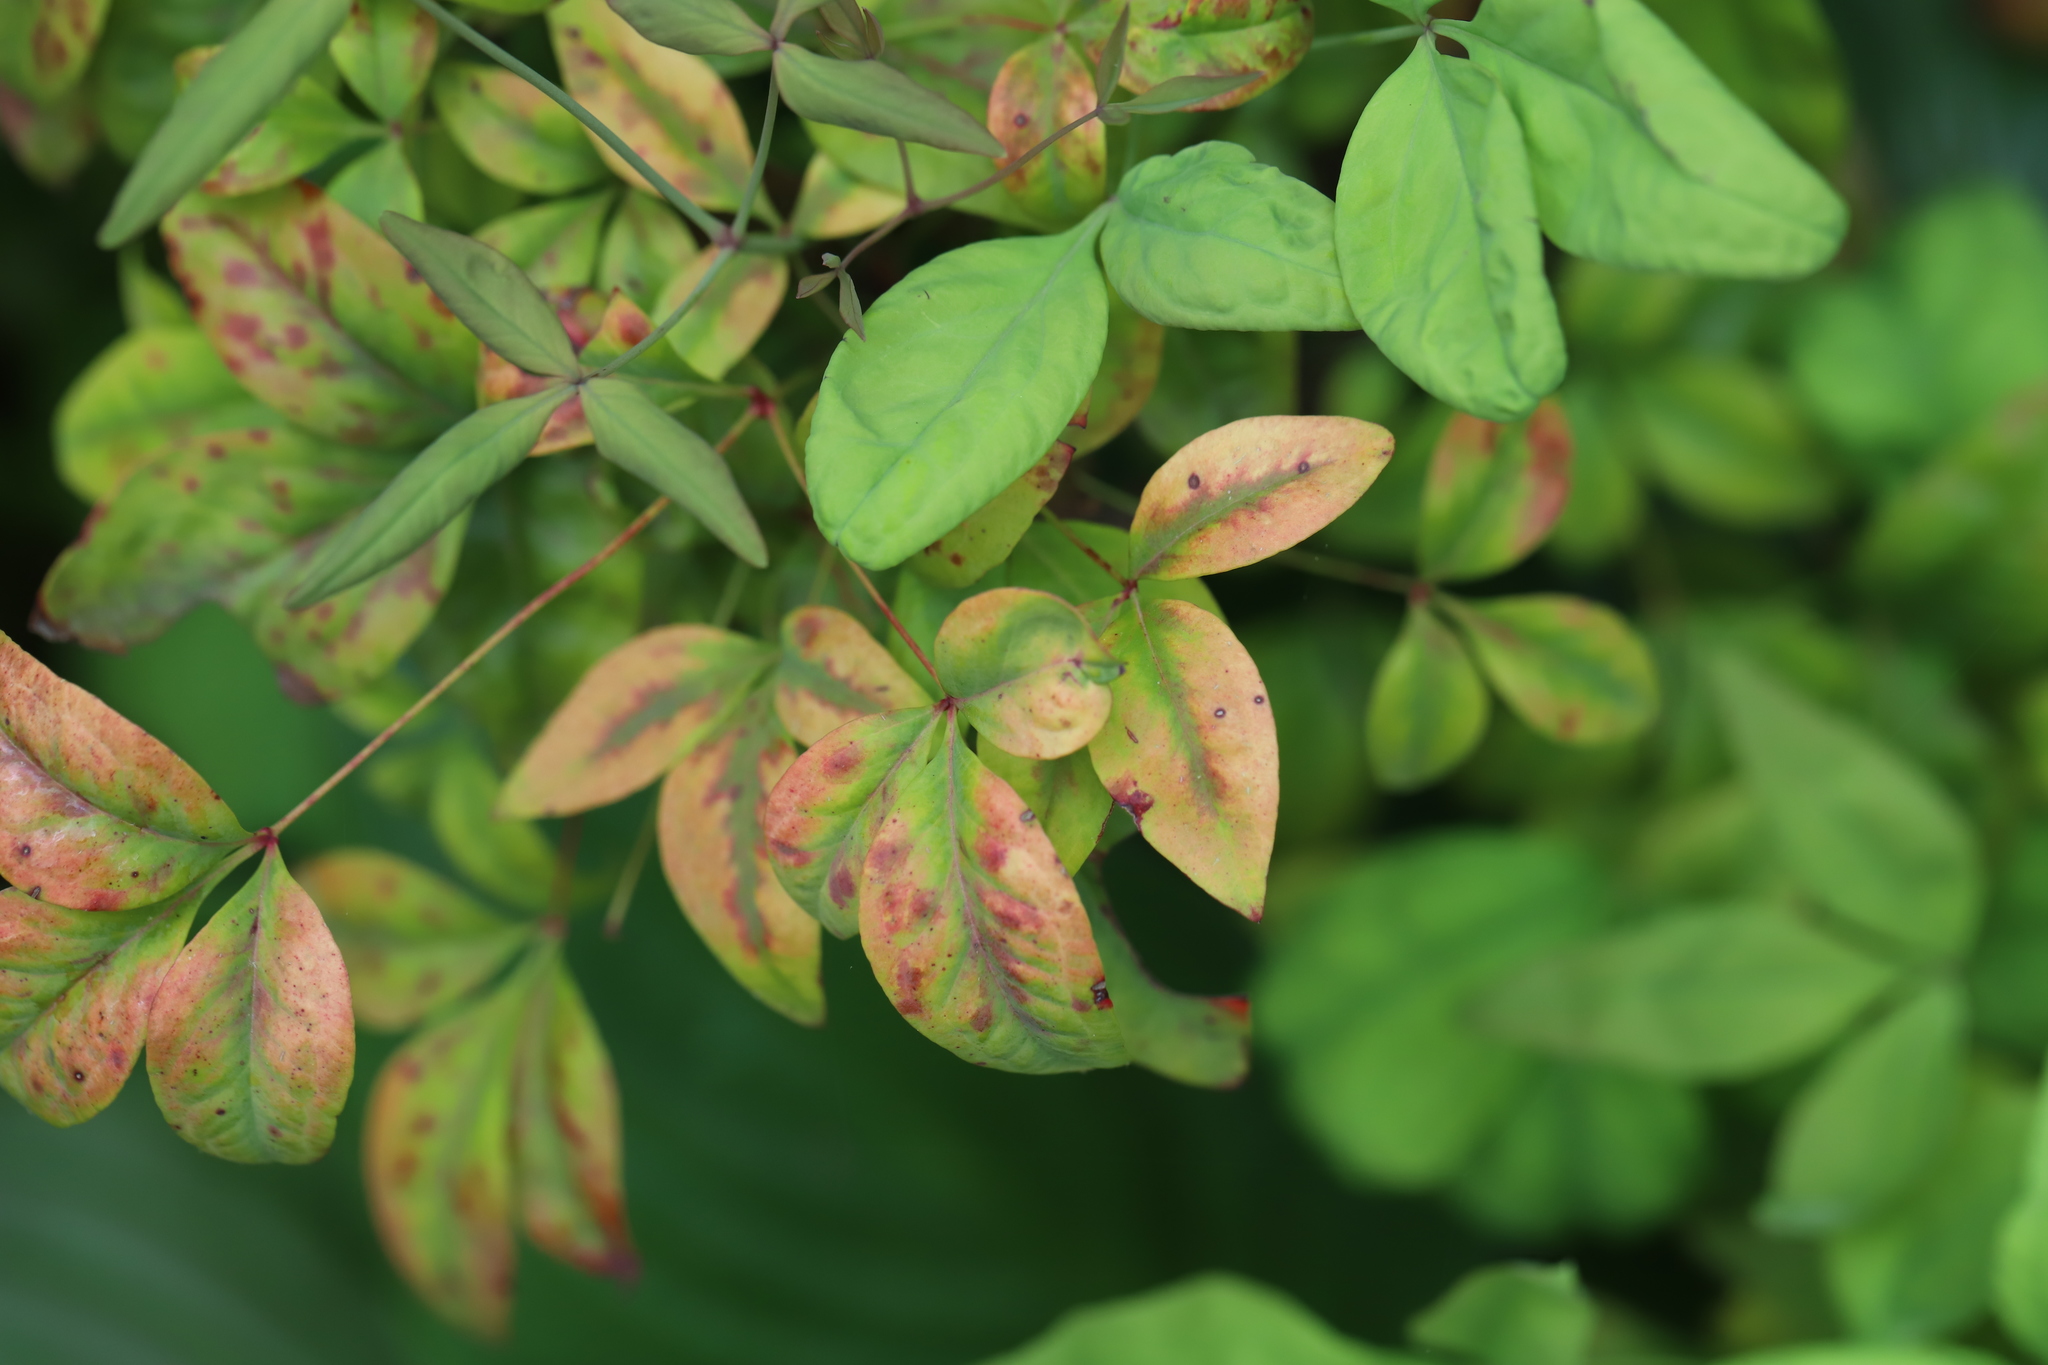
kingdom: Fungi
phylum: Ascomycota
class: Dothideomycetes
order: Mycosphaerellales
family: Mycosphaerellaceae
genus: Pseudocercospora
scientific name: Pseudocercospora nandinae
